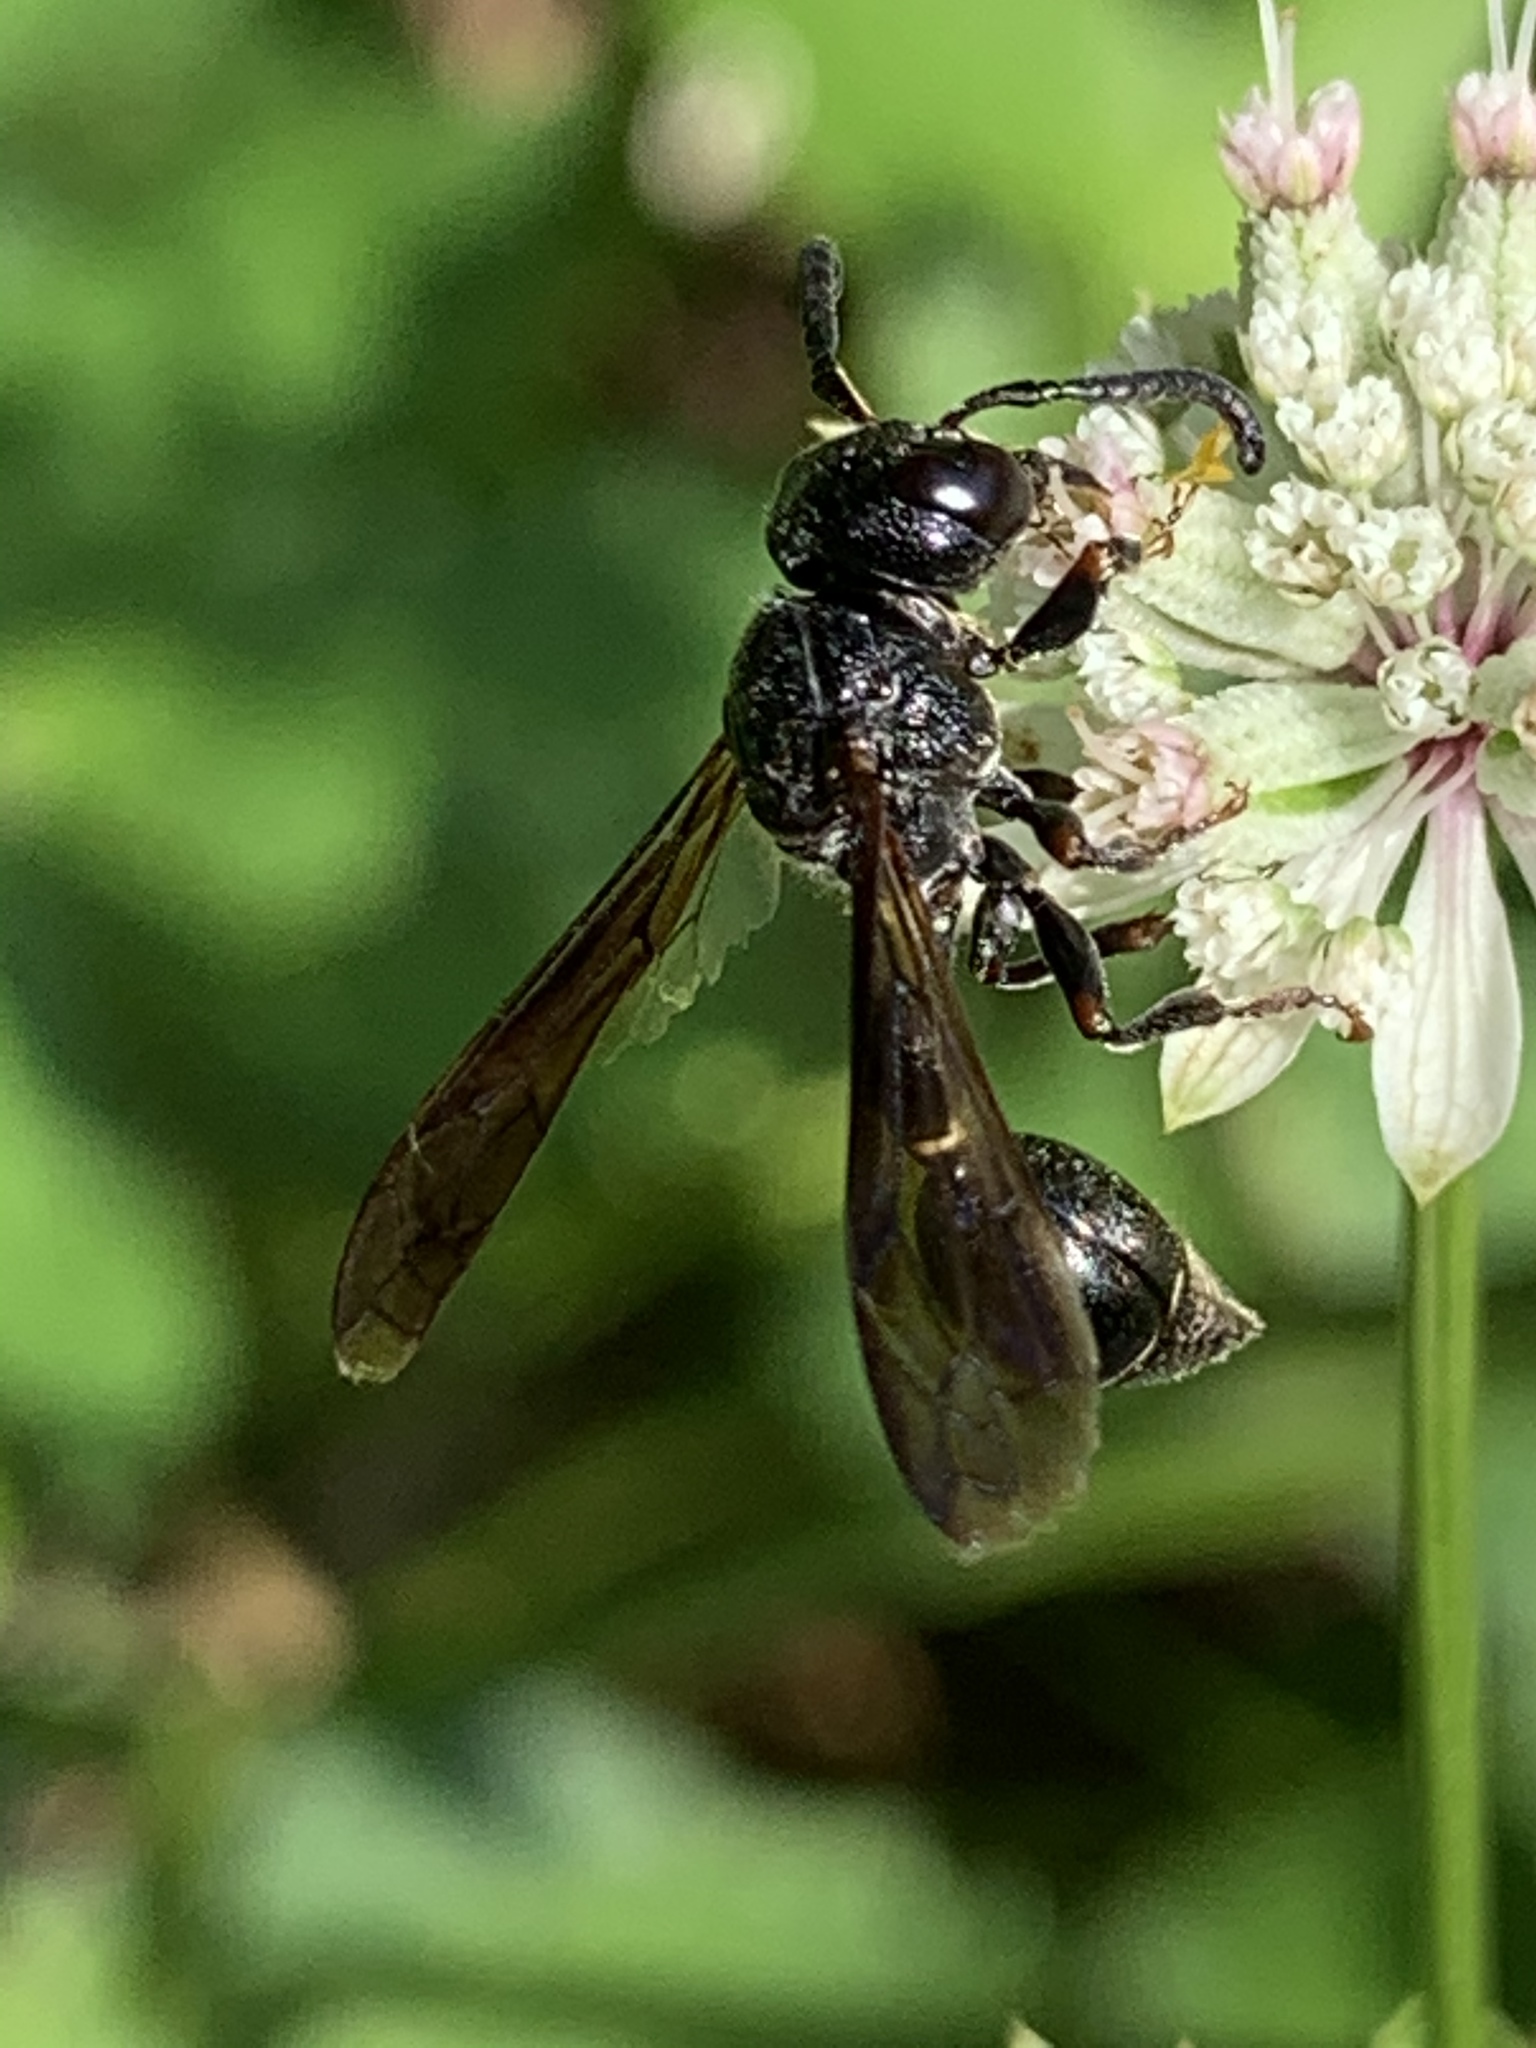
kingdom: Animalia
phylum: Arthropoda
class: Insecta
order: Hymenoptera
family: Eumenidae
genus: Zethus
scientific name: Zethus spinipes
